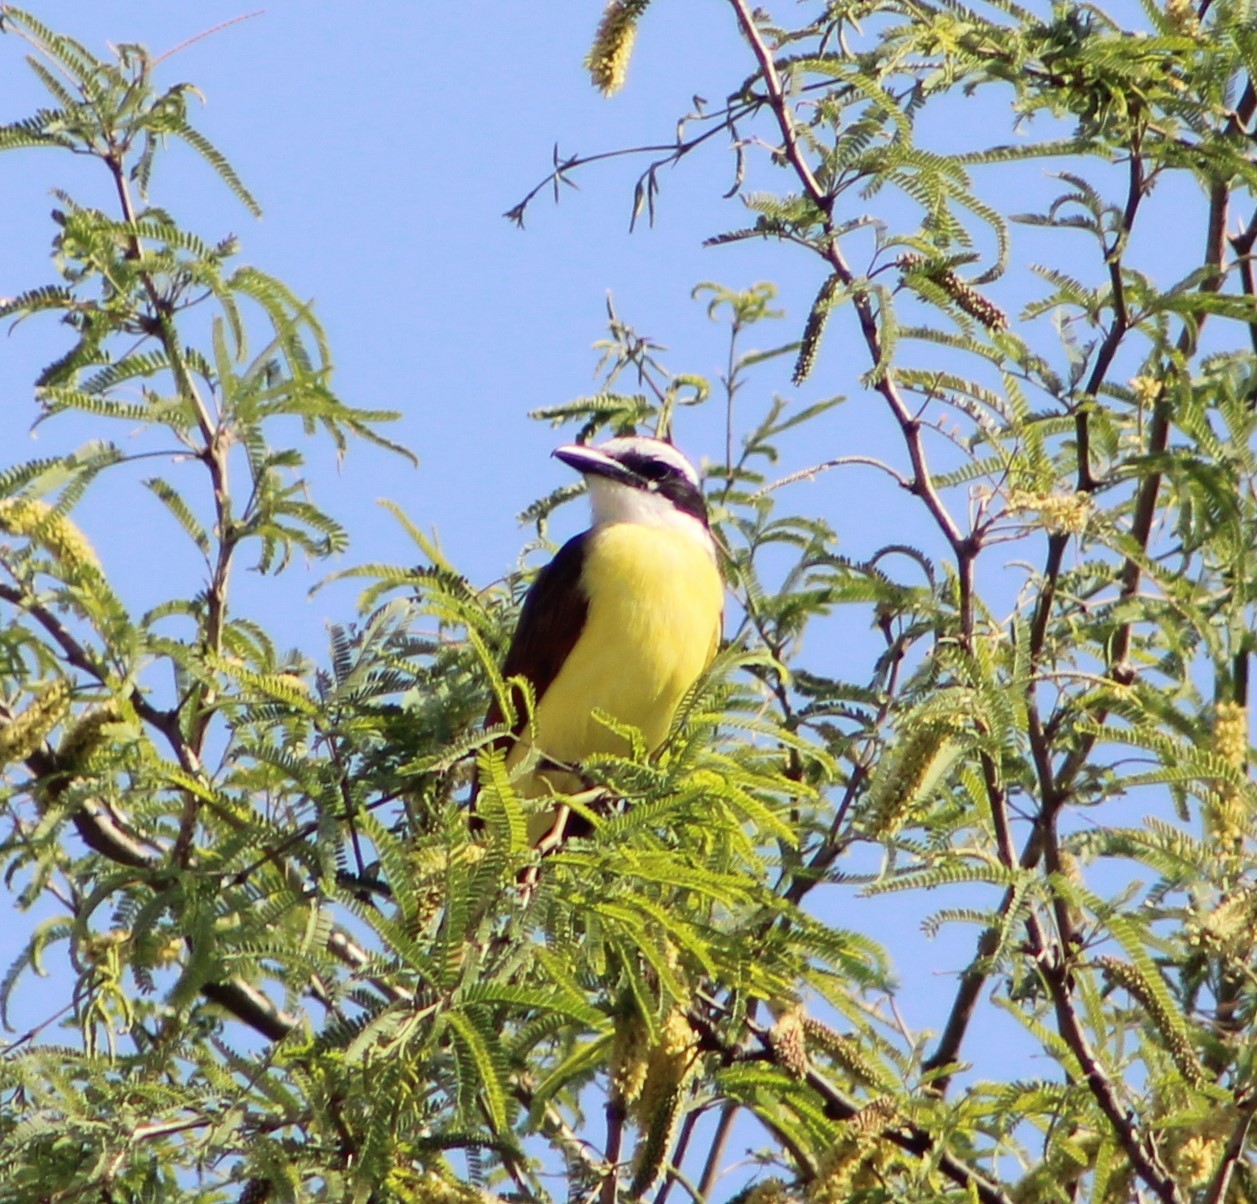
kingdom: Animalia
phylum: Chordata
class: Aves
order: Passeriformes
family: Tyrannidae
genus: Pitangus
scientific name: Pitangus sulphuratus
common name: Great kiskadee
